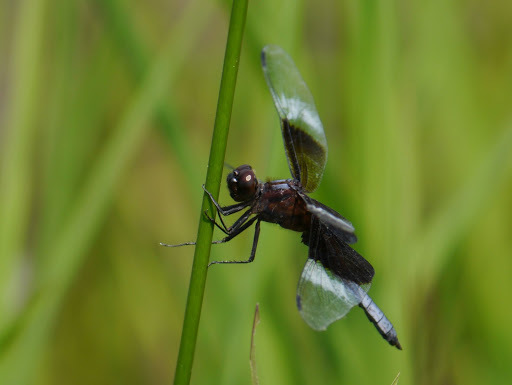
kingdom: Animalia
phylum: Arthropoda
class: Insecta
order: Odonata
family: Libellulidae
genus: Libellula
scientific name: Libellula luctuosa
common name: Widow skimmer
